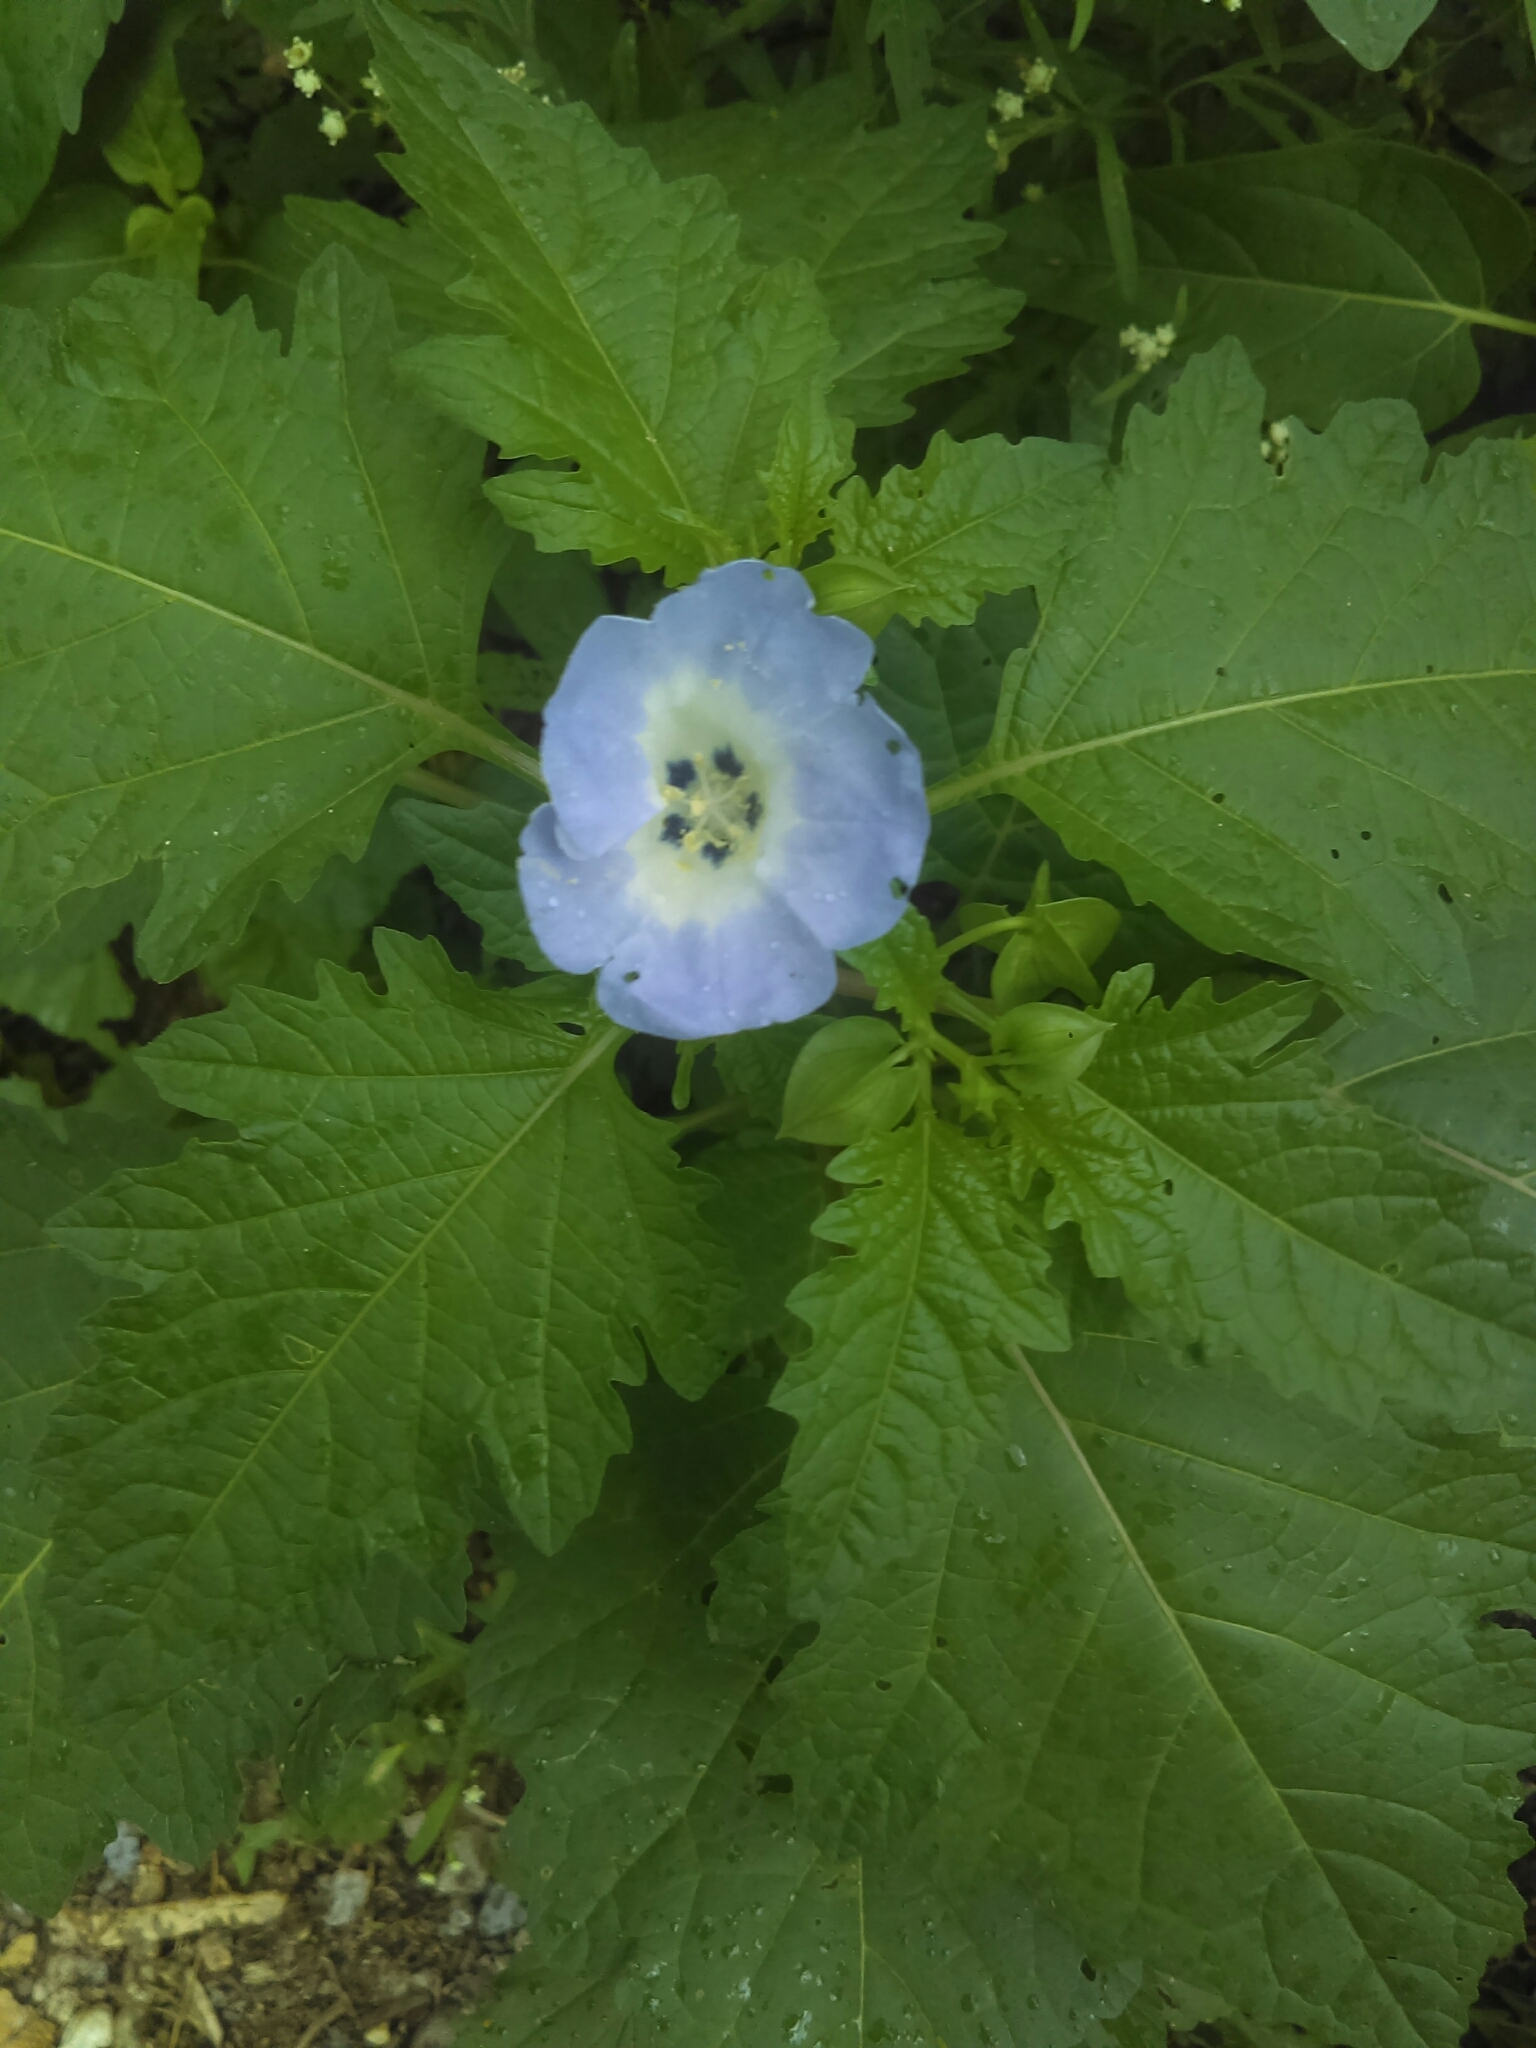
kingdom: Plantae
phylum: Tracheophyta
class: Magnoliopsida
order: Solanales
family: Solanaceae
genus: Nicandra
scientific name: Nicandra physalodes
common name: Apple-of-peru
